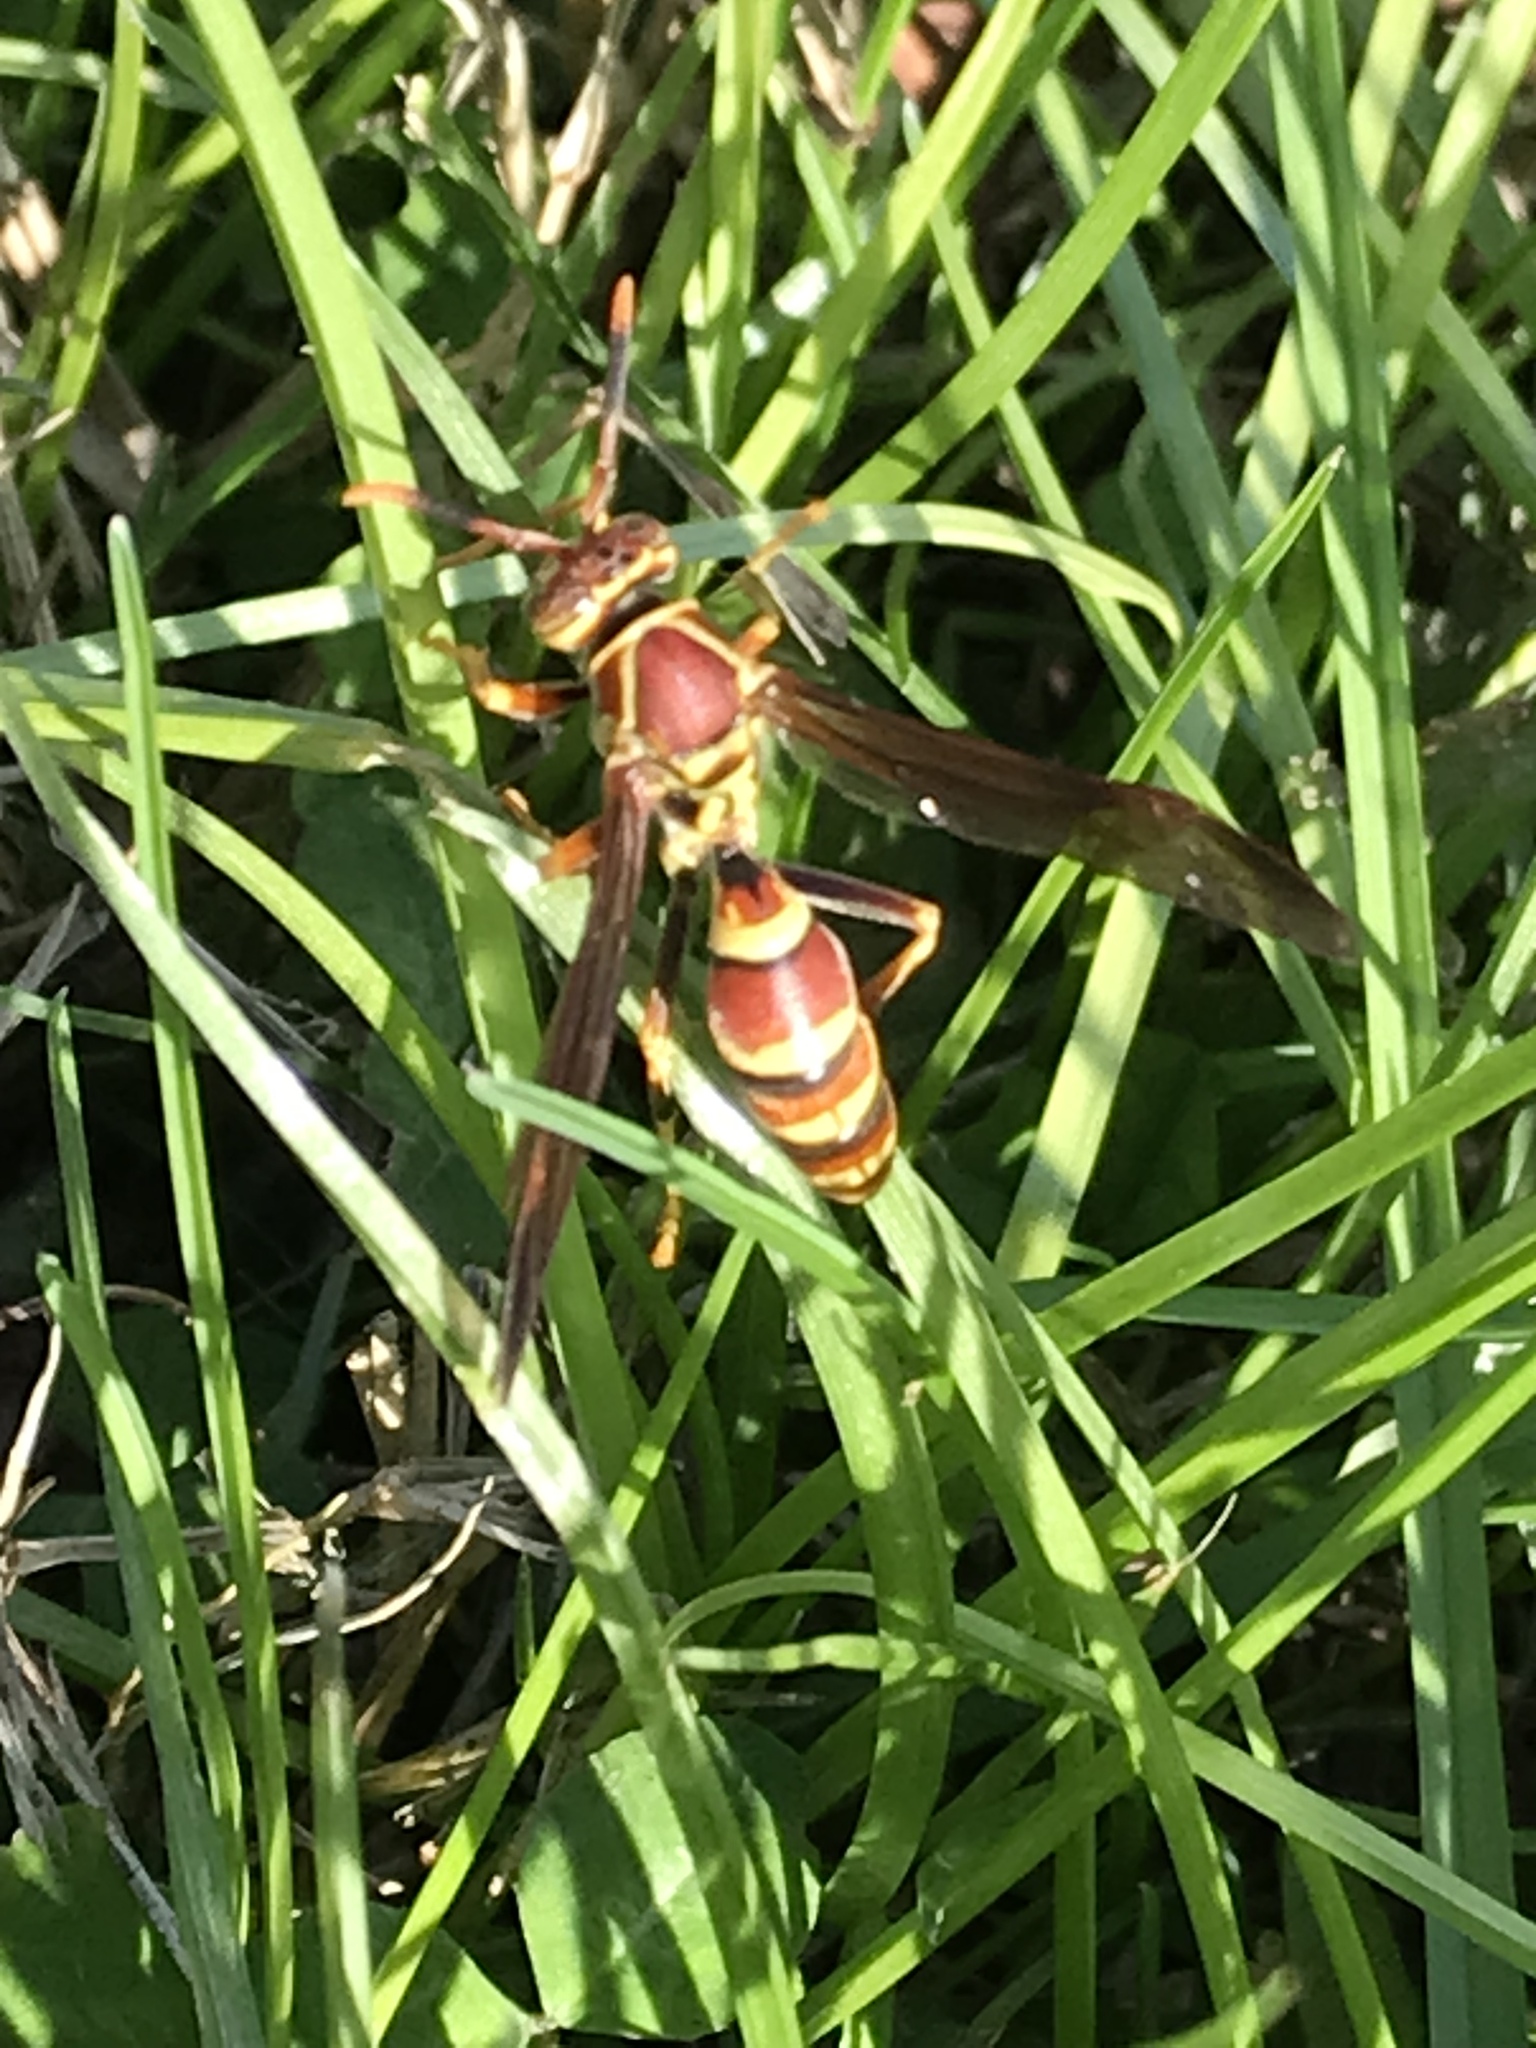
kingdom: Animalia
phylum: Arthropoda
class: Insecta
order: Hymenoptera
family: Eumenidae
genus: Polistes
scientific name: Polistes exclamans
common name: Paper wasp
